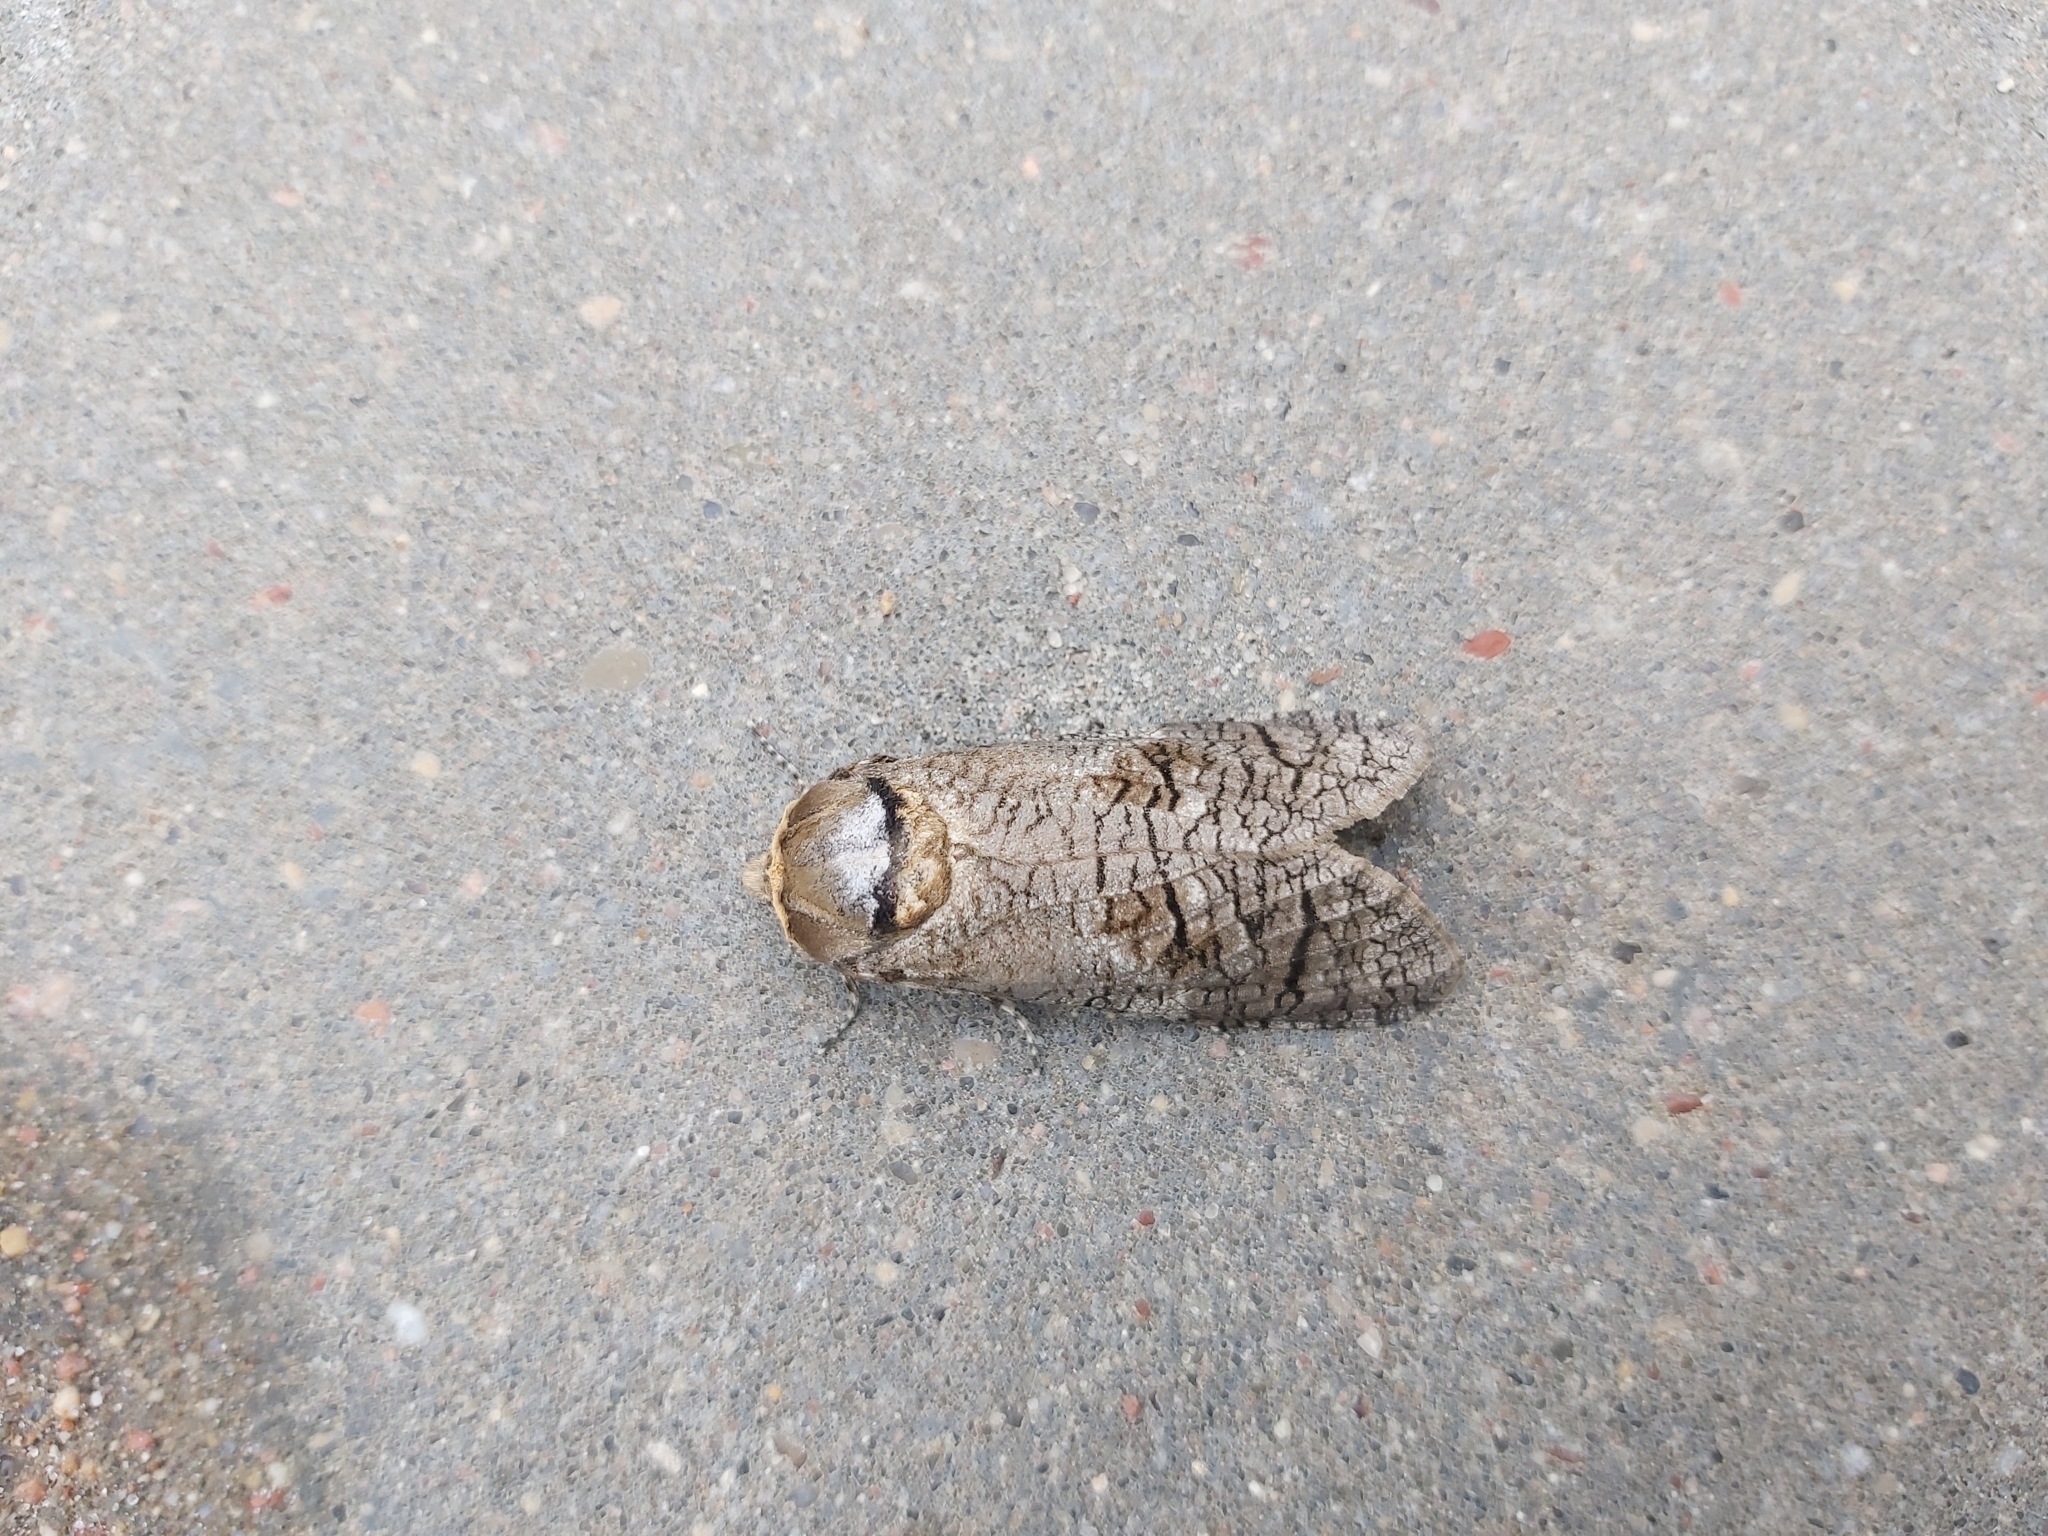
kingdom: Animalia
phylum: Arthropoda
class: Insecta
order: Lepidoptera
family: Cossidae
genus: Cossus
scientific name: Cossus cossus
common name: Goat moth
